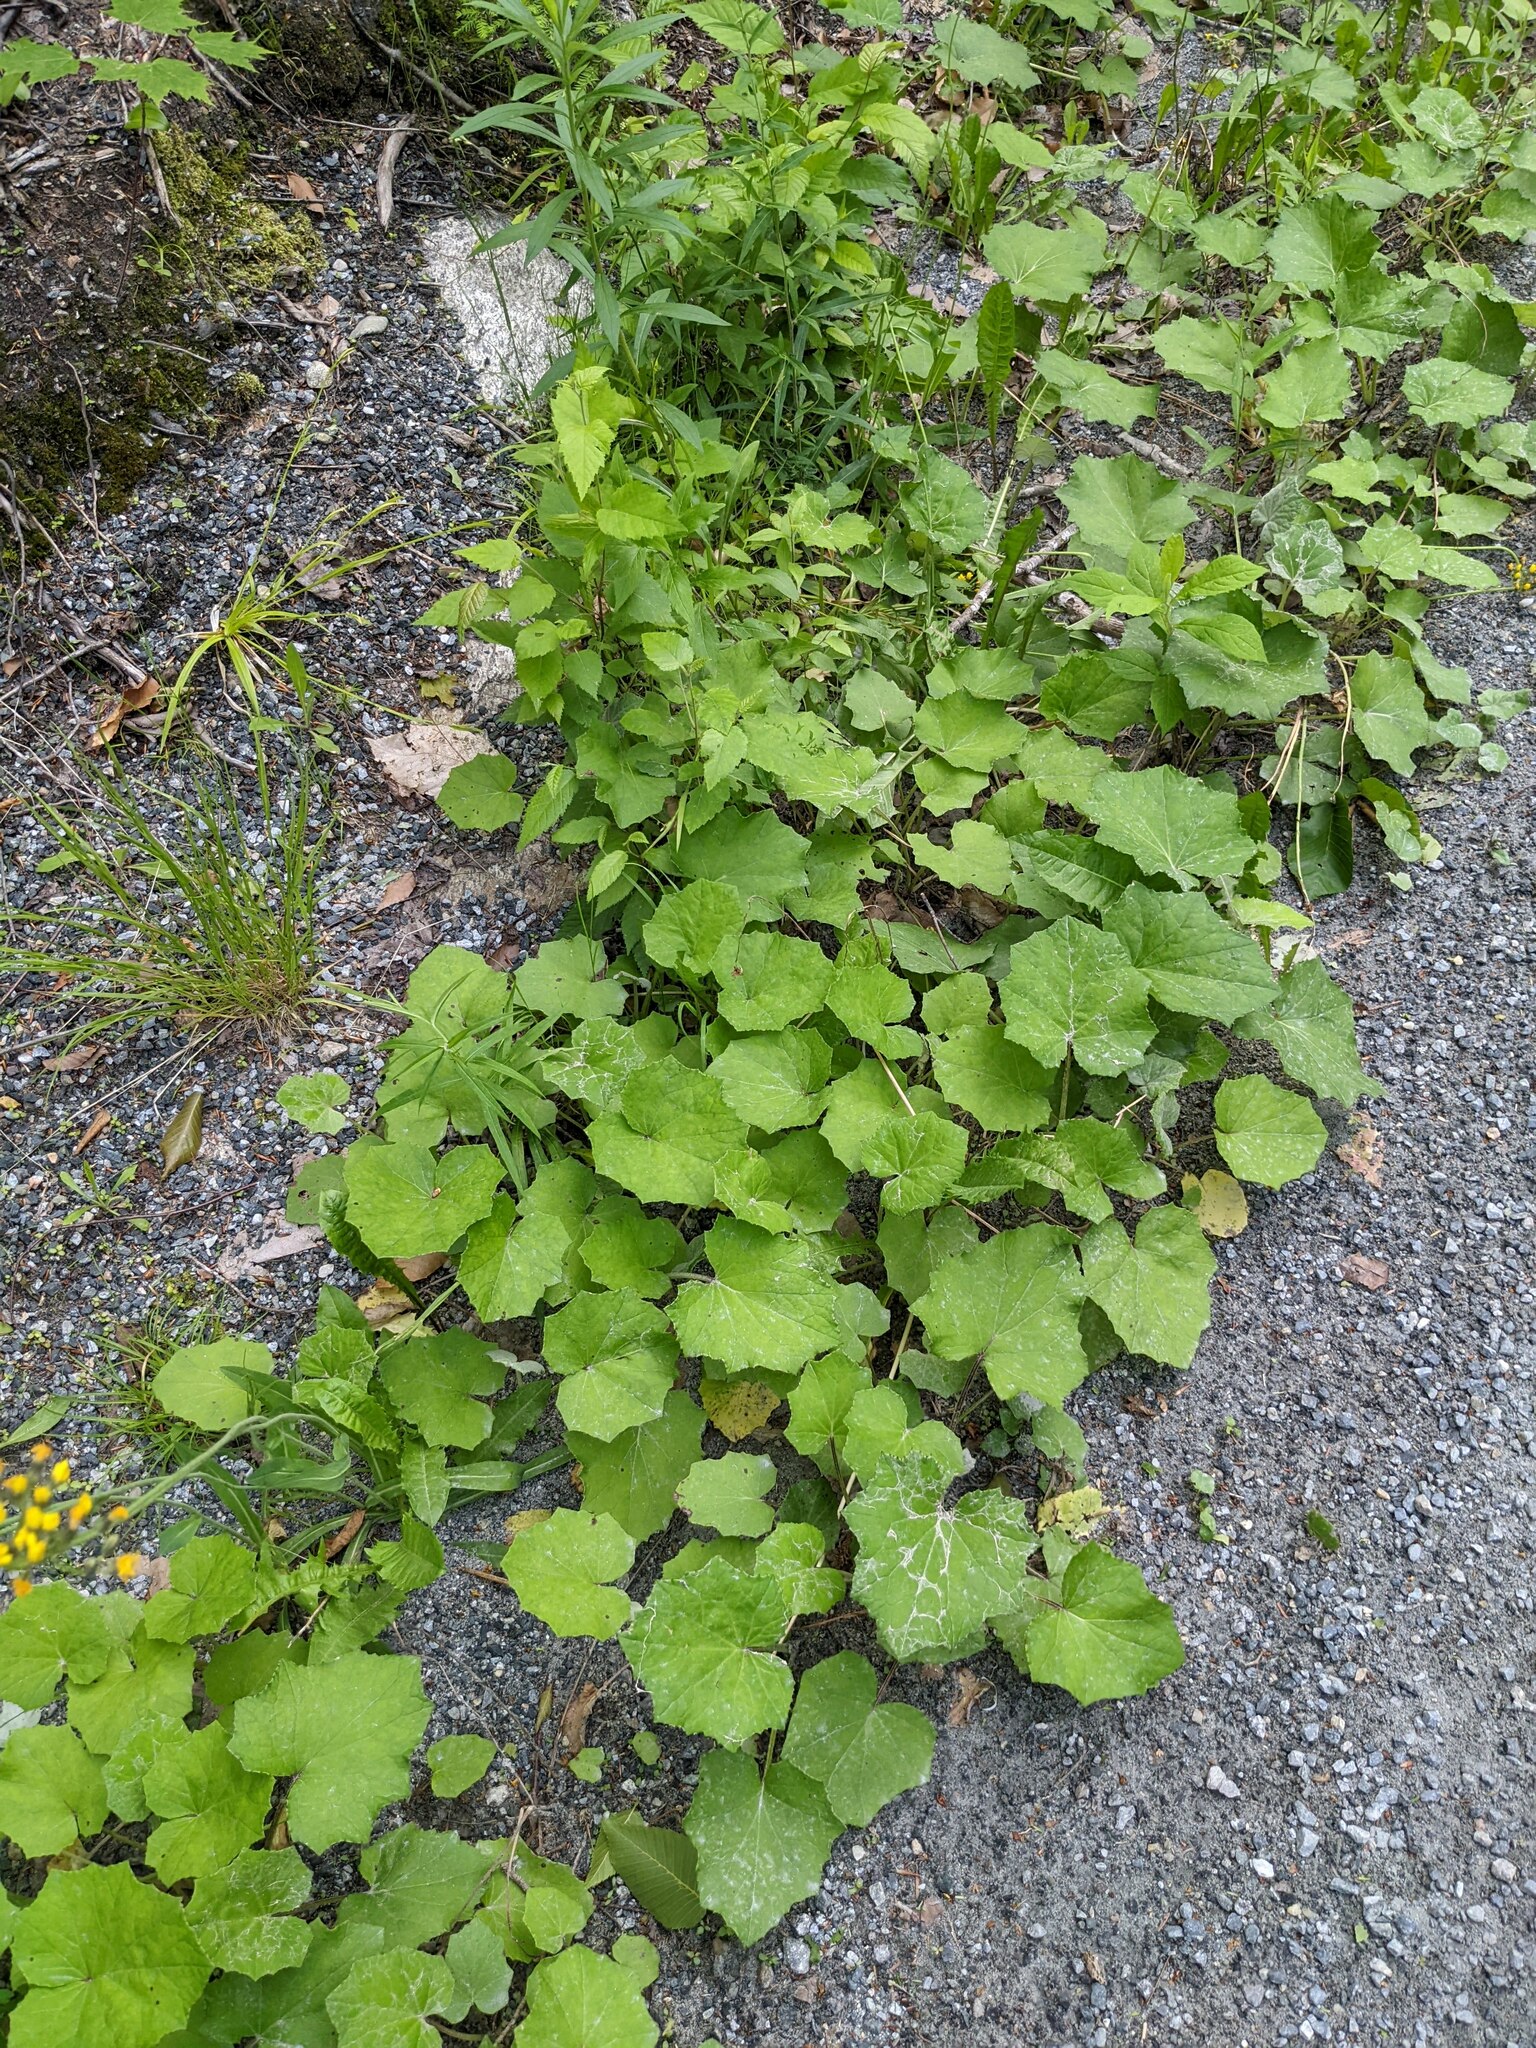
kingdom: Plantae
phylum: Tracheophyta
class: Magnoliopsida
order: Asterales
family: Asteraceae
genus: Tussilago
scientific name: Tussilago farfara
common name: Coltsfoot
